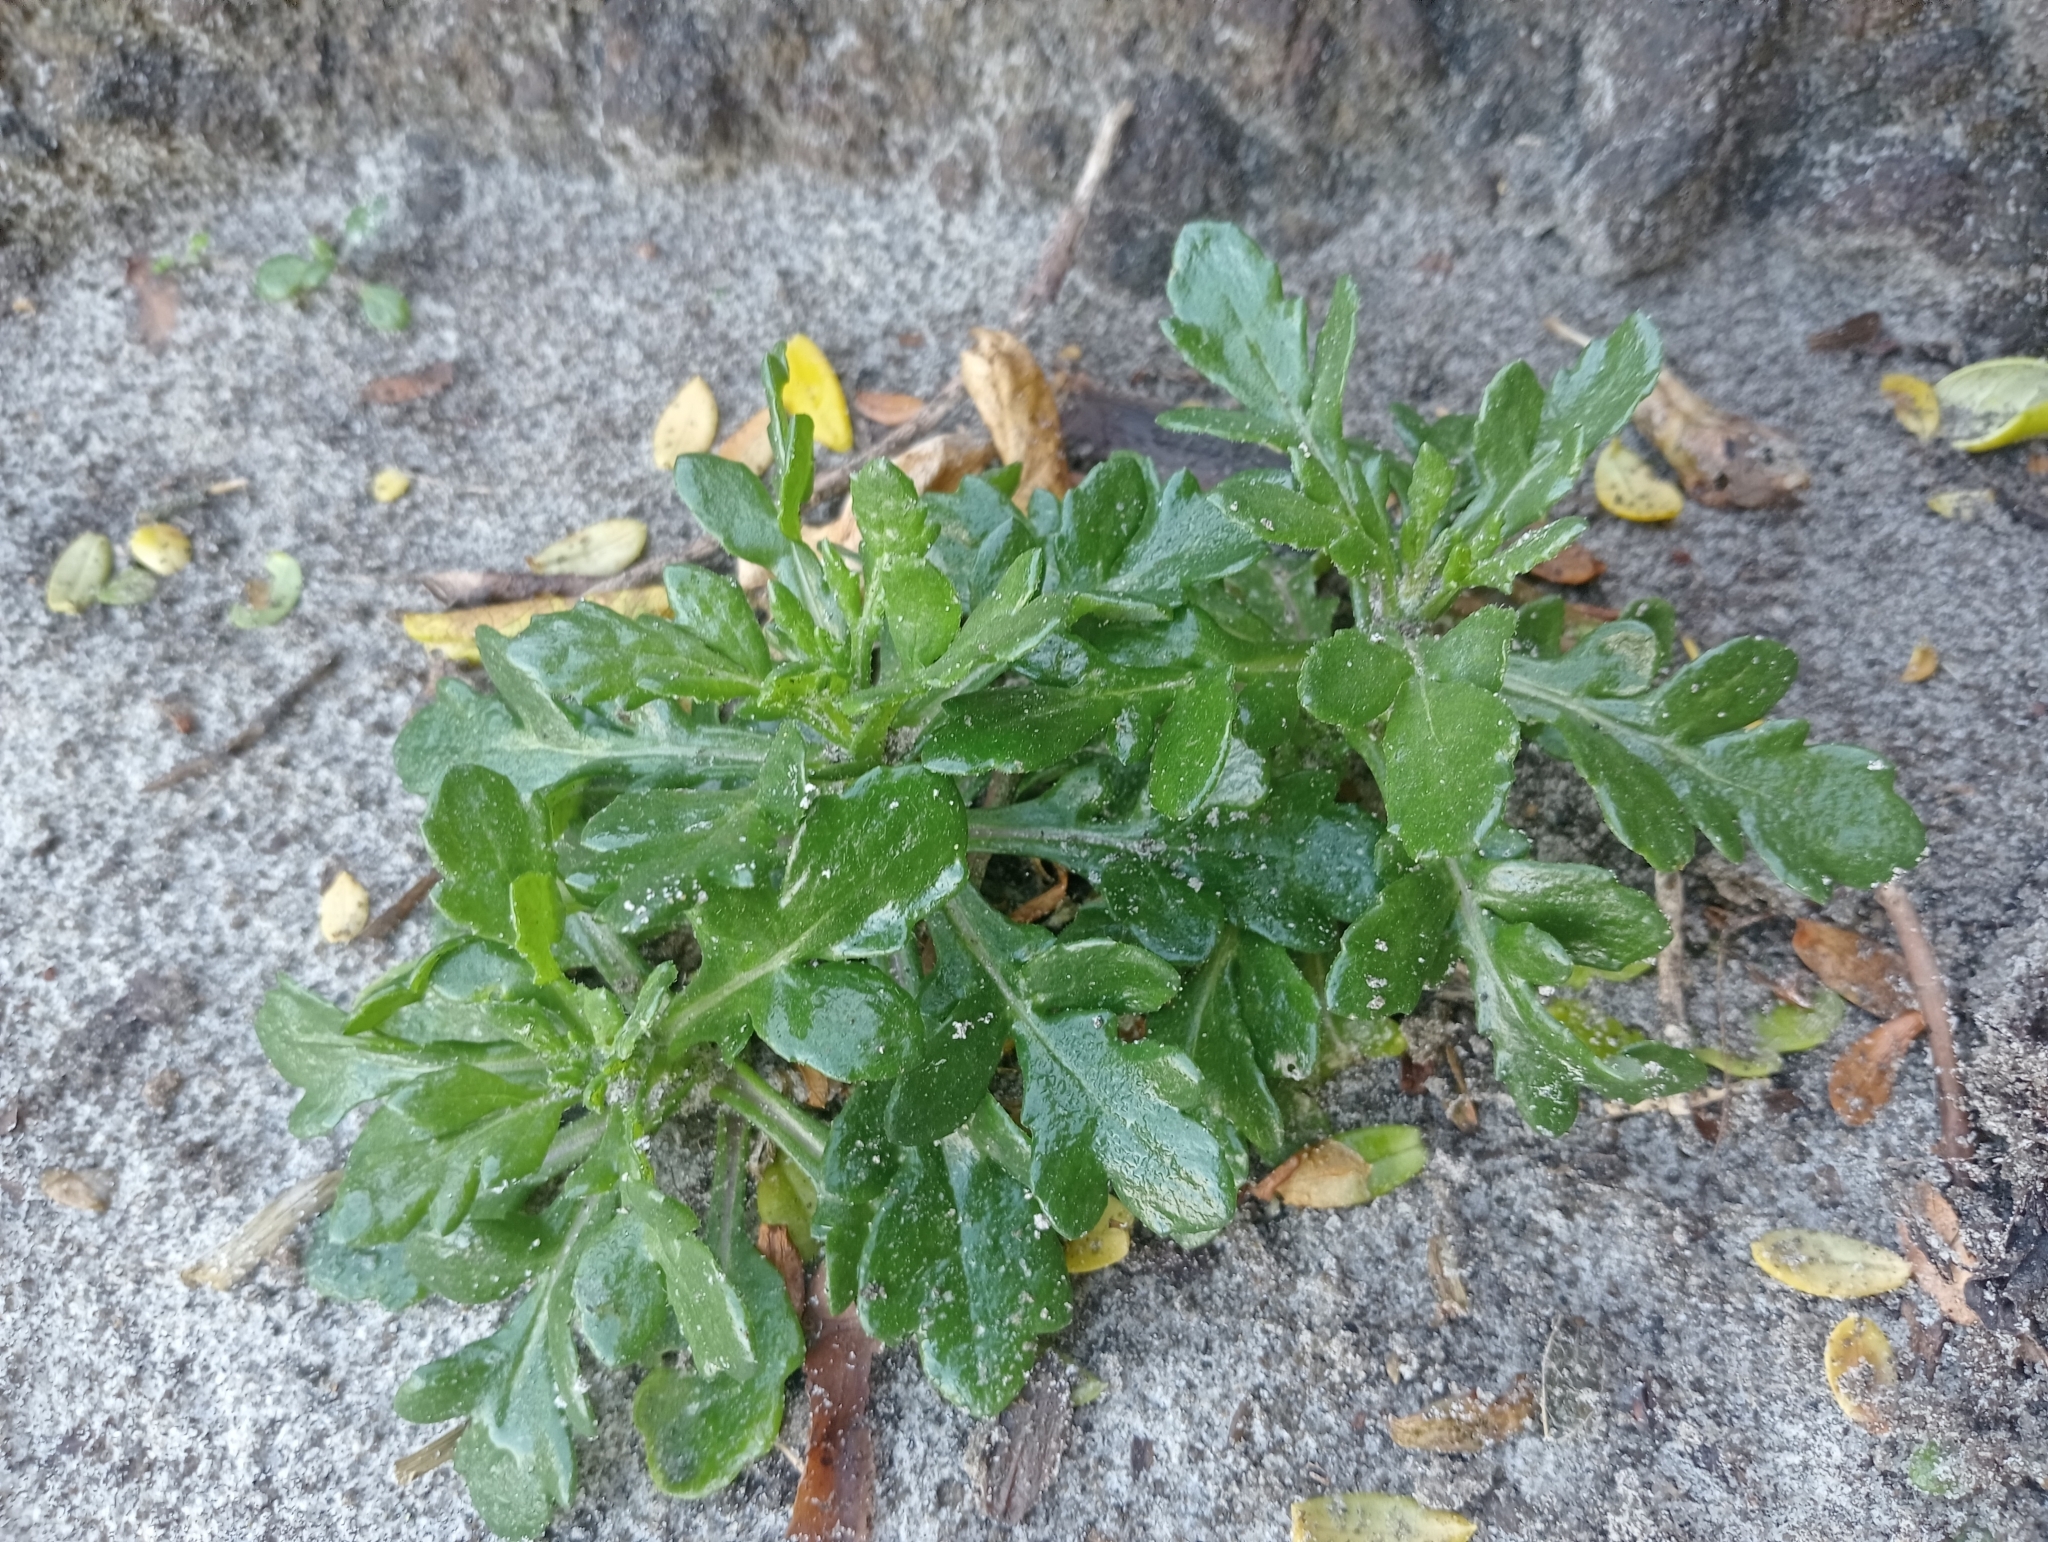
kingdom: Plantae
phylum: Tracheophyta
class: Magnoliopsida
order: Asterales
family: Asteraceae
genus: Senecio
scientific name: Senecio carnosulus
